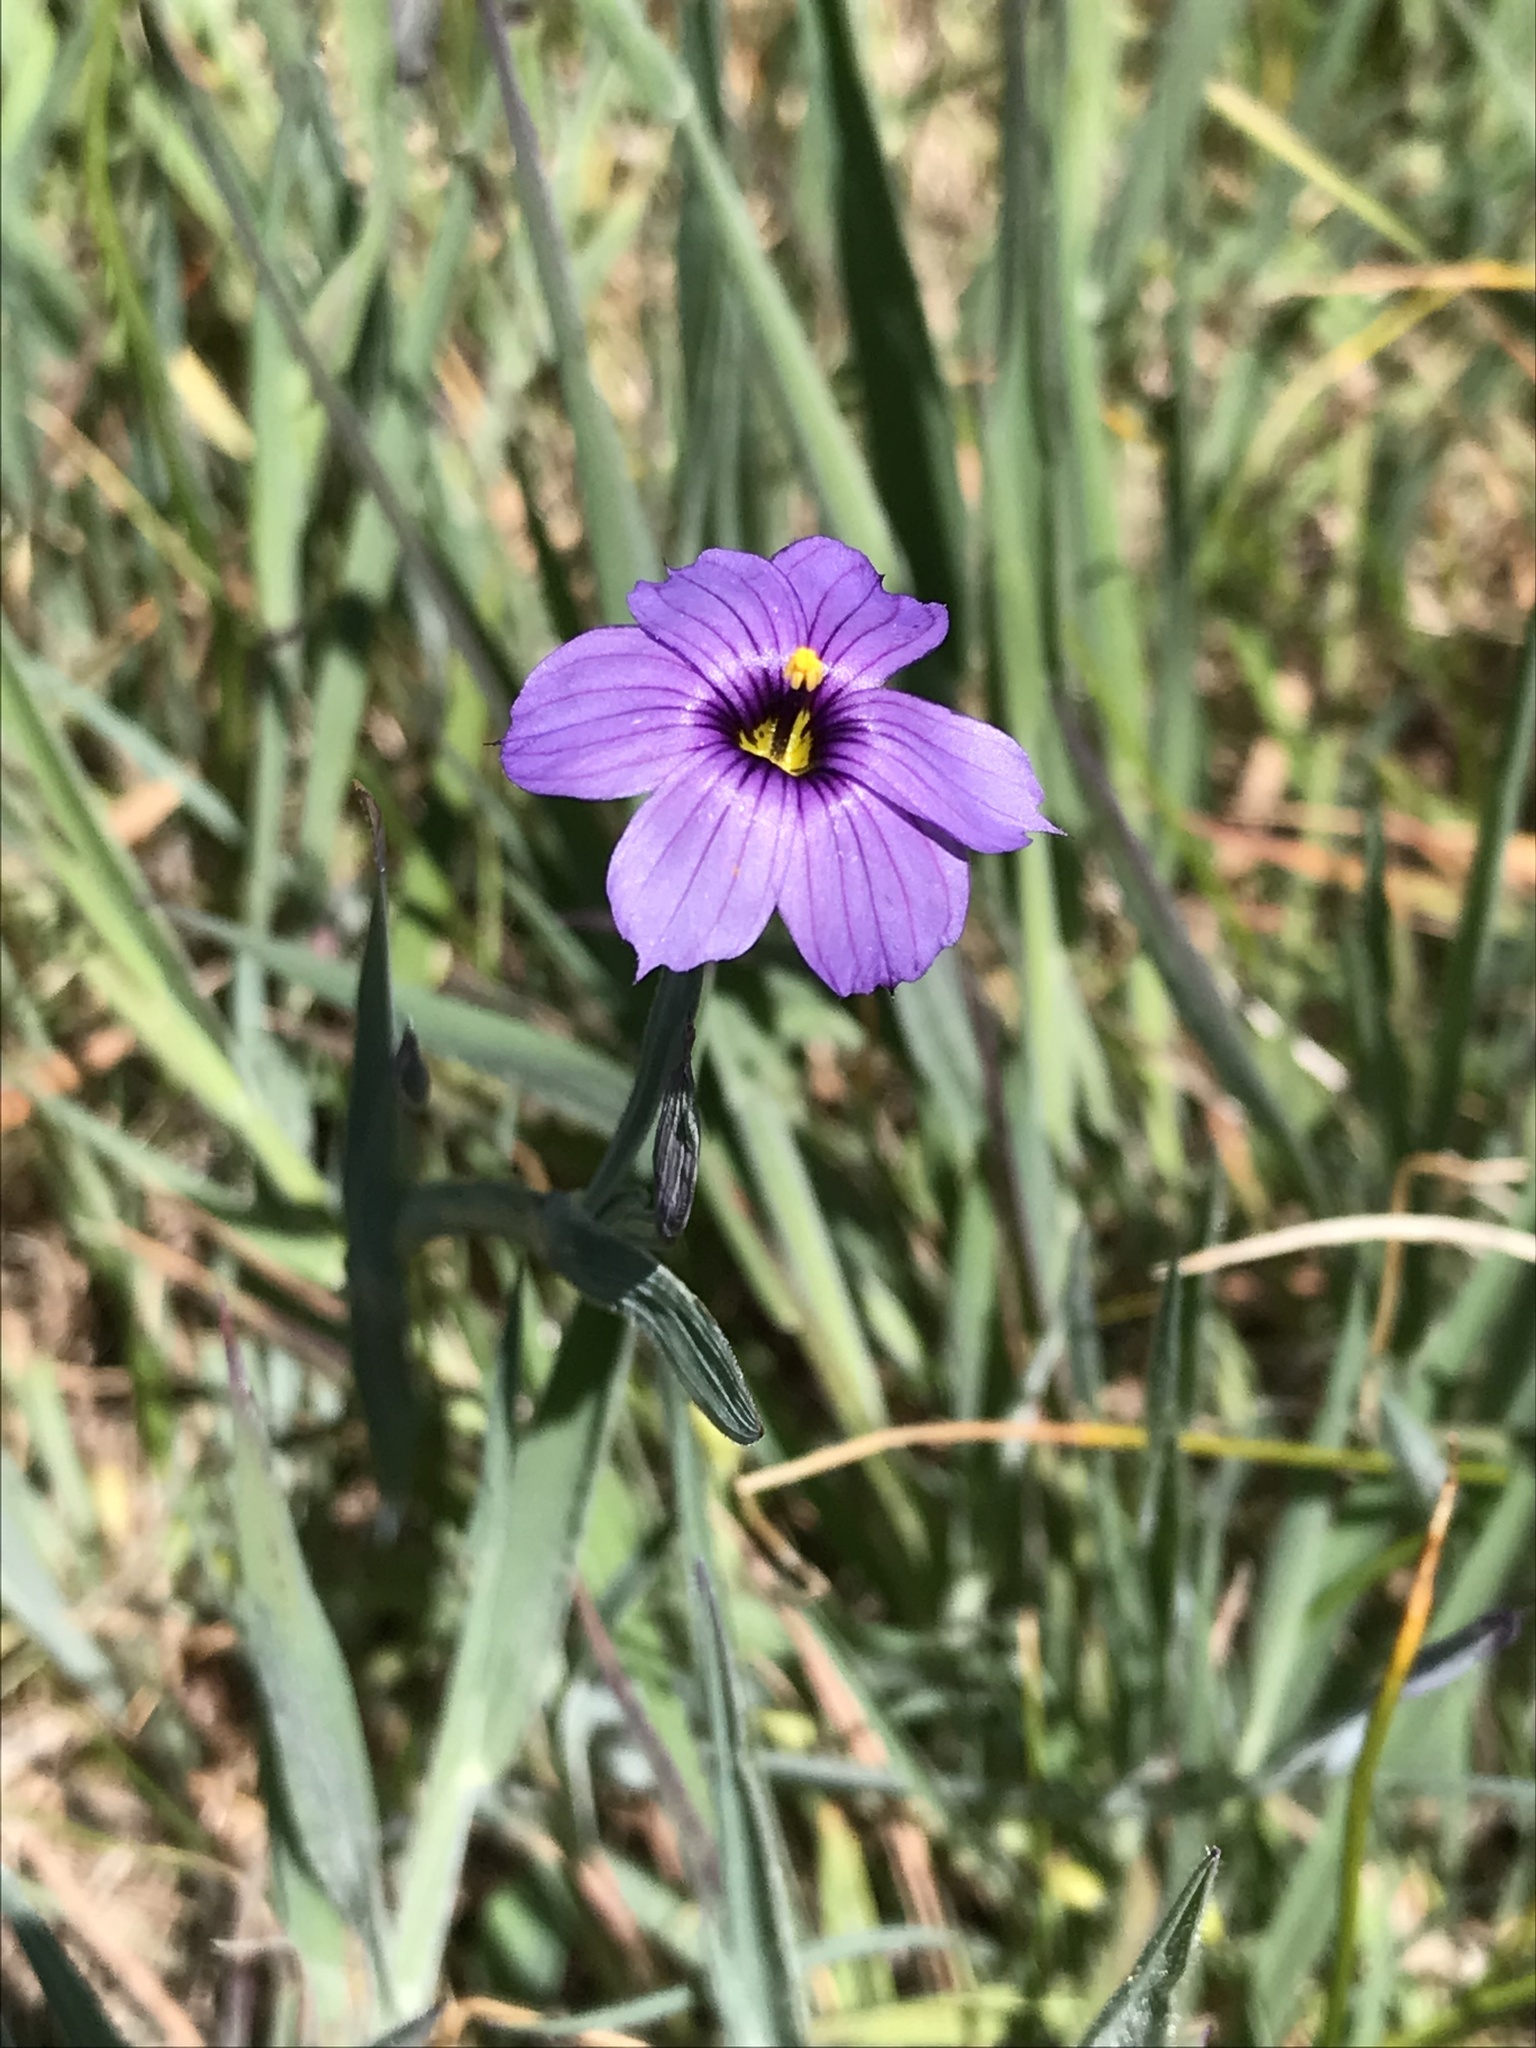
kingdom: Plantae
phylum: Tracheophyta
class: Liliopsida
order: Asparagales
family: Iridaceae
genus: Sisyrinchium
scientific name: Sisyrinchium bellum
